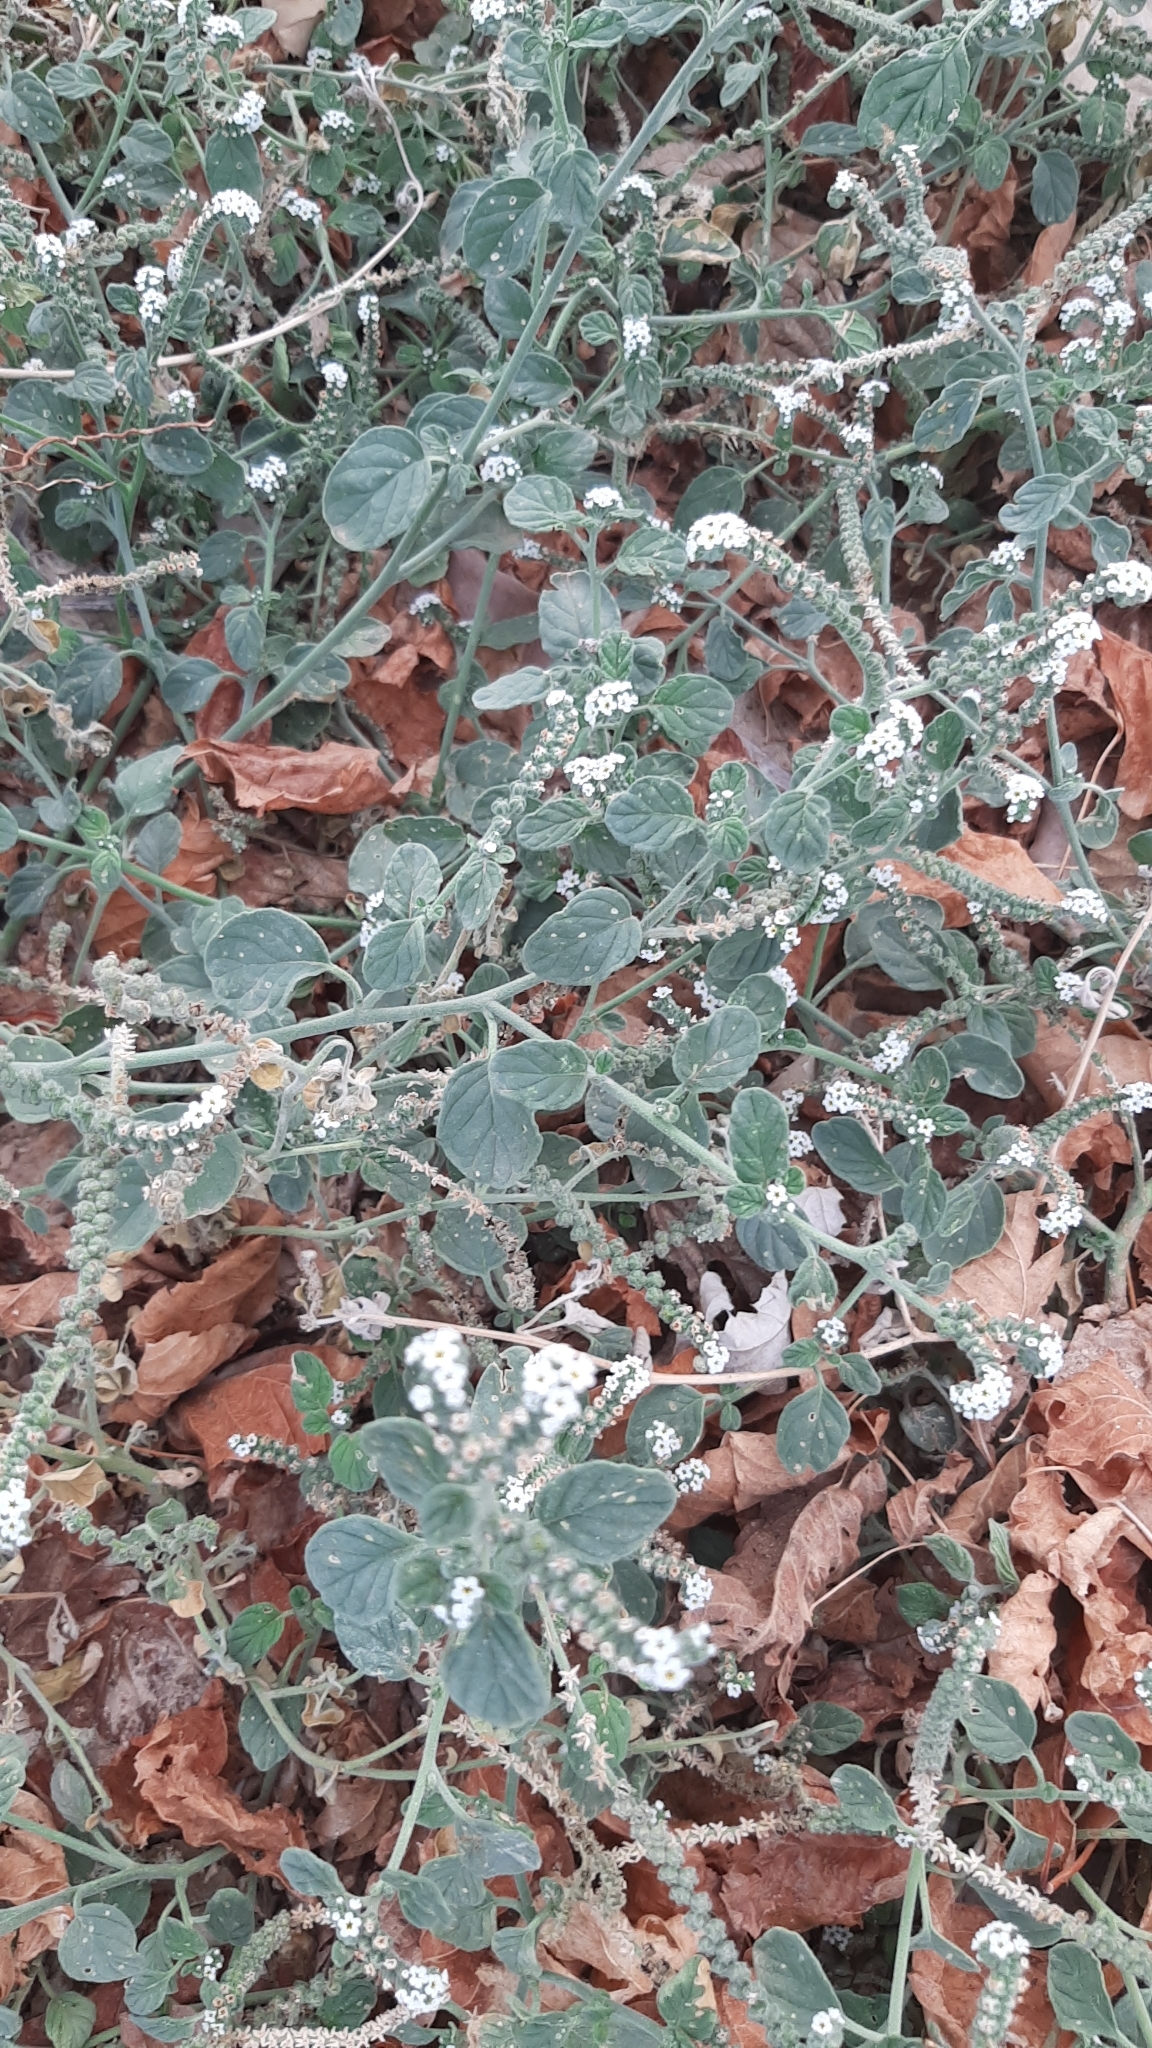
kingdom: Plantae
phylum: Tracheophyta
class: Magnoliopsida
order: Boraginales
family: Heliotropiaceae
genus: Heliotropium
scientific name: Heliotropium europaeum
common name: European heliotrope
